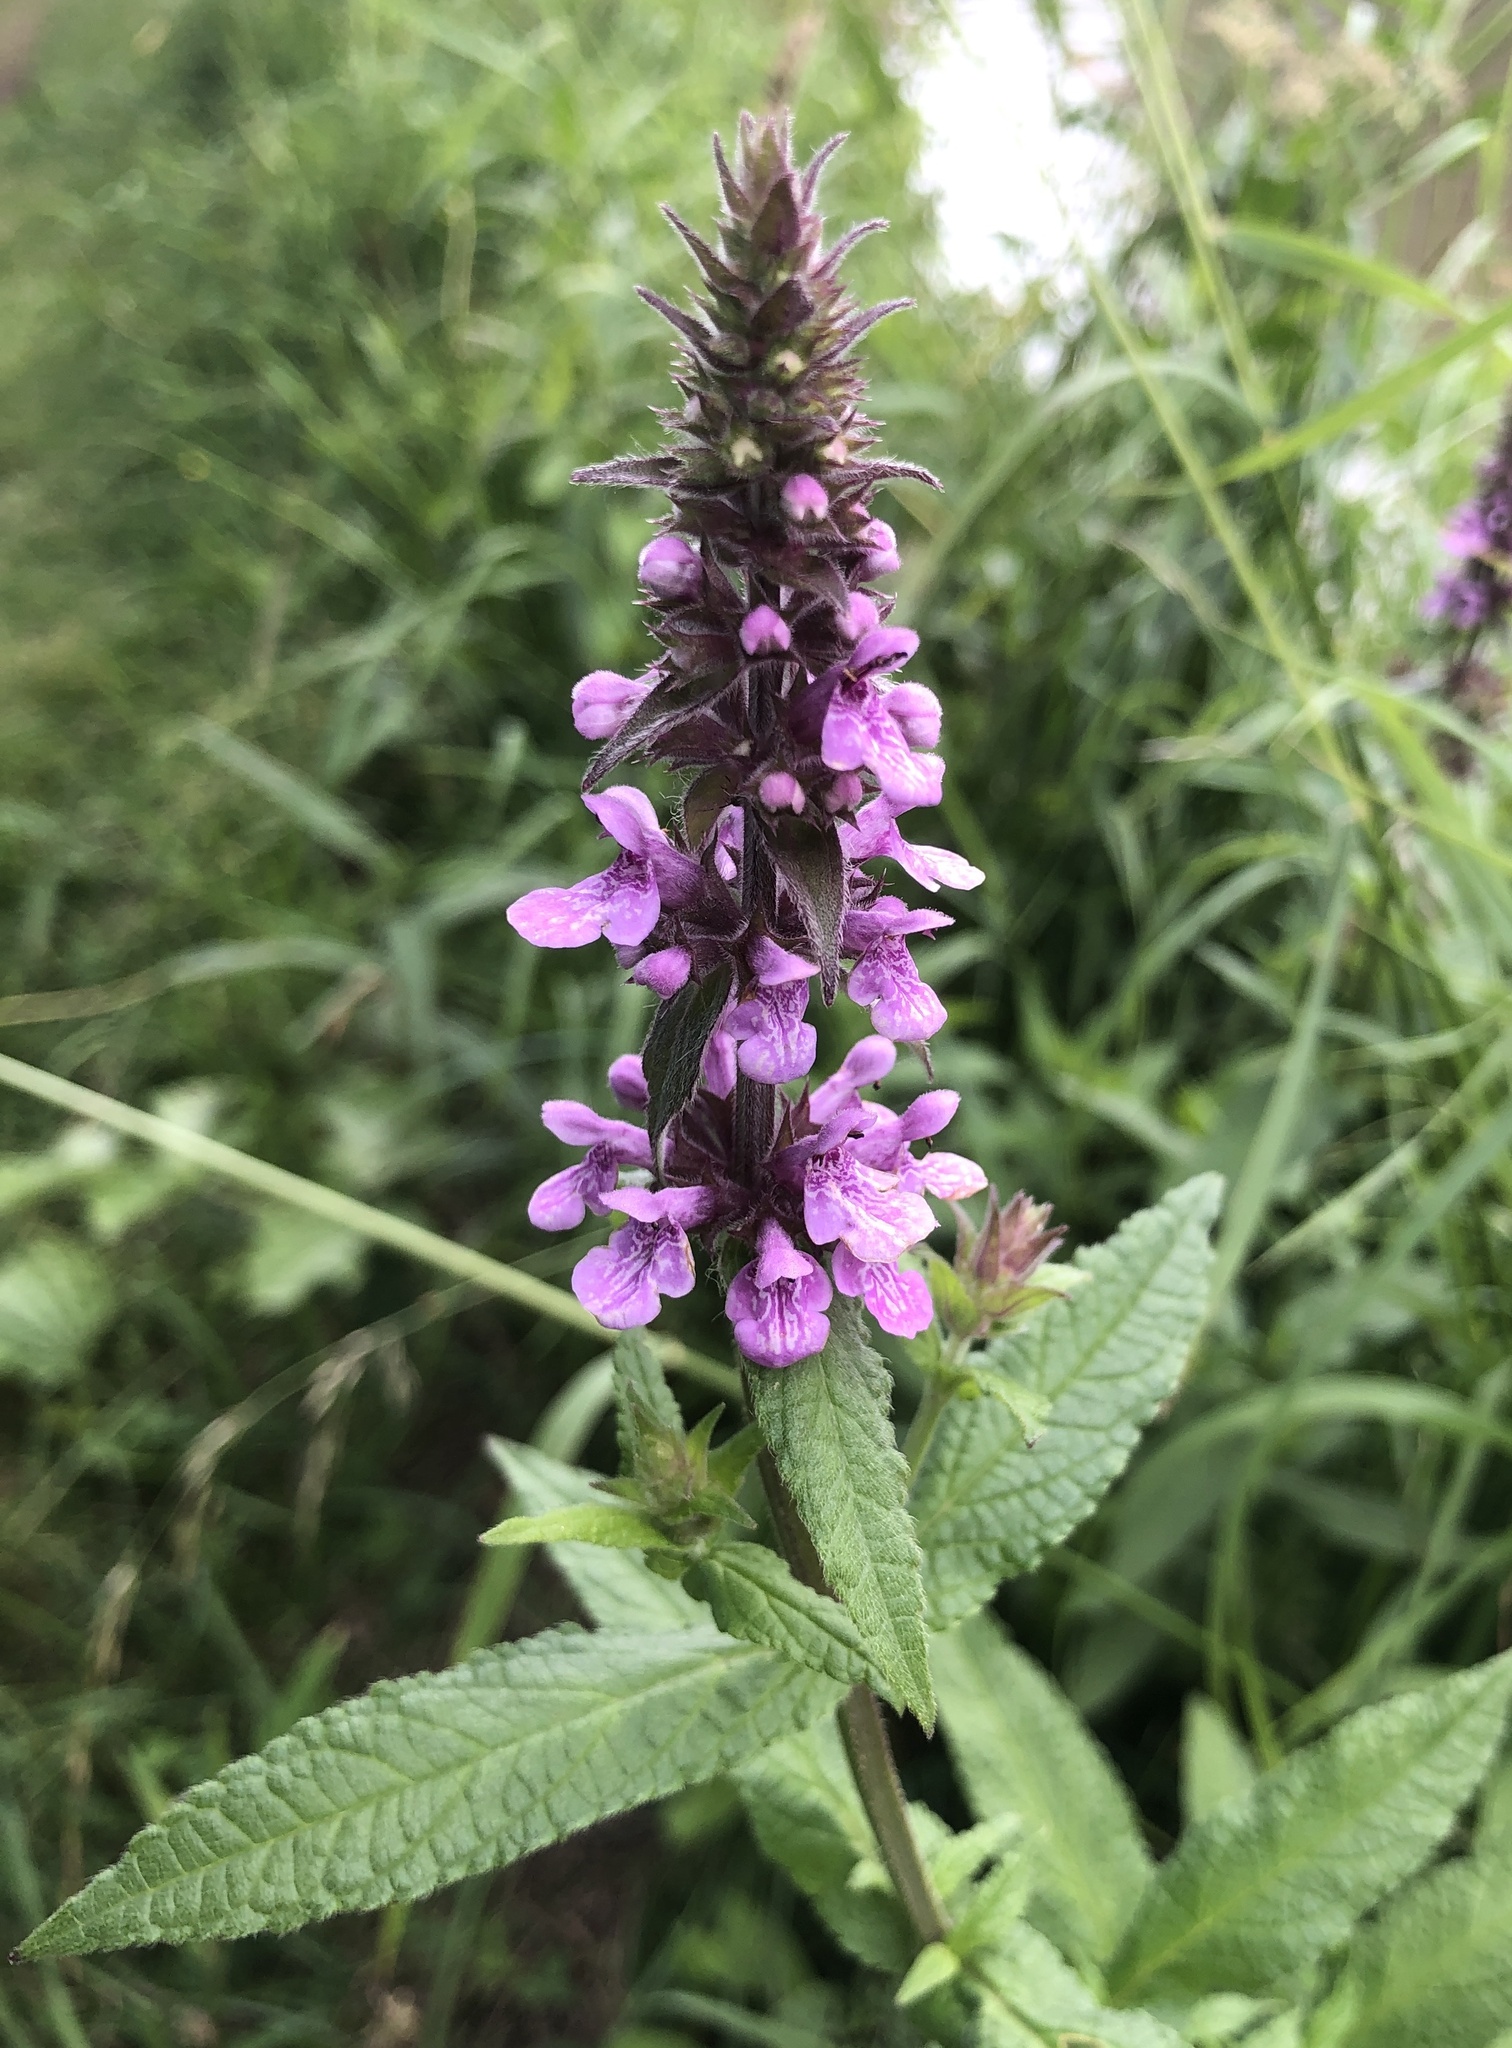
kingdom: Plantae
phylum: Tracheophyta
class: Magnoliopsida
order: Lamiales
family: Lamiaceae
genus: Stachys
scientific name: Stachys palustris
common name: Marsh woundwort
